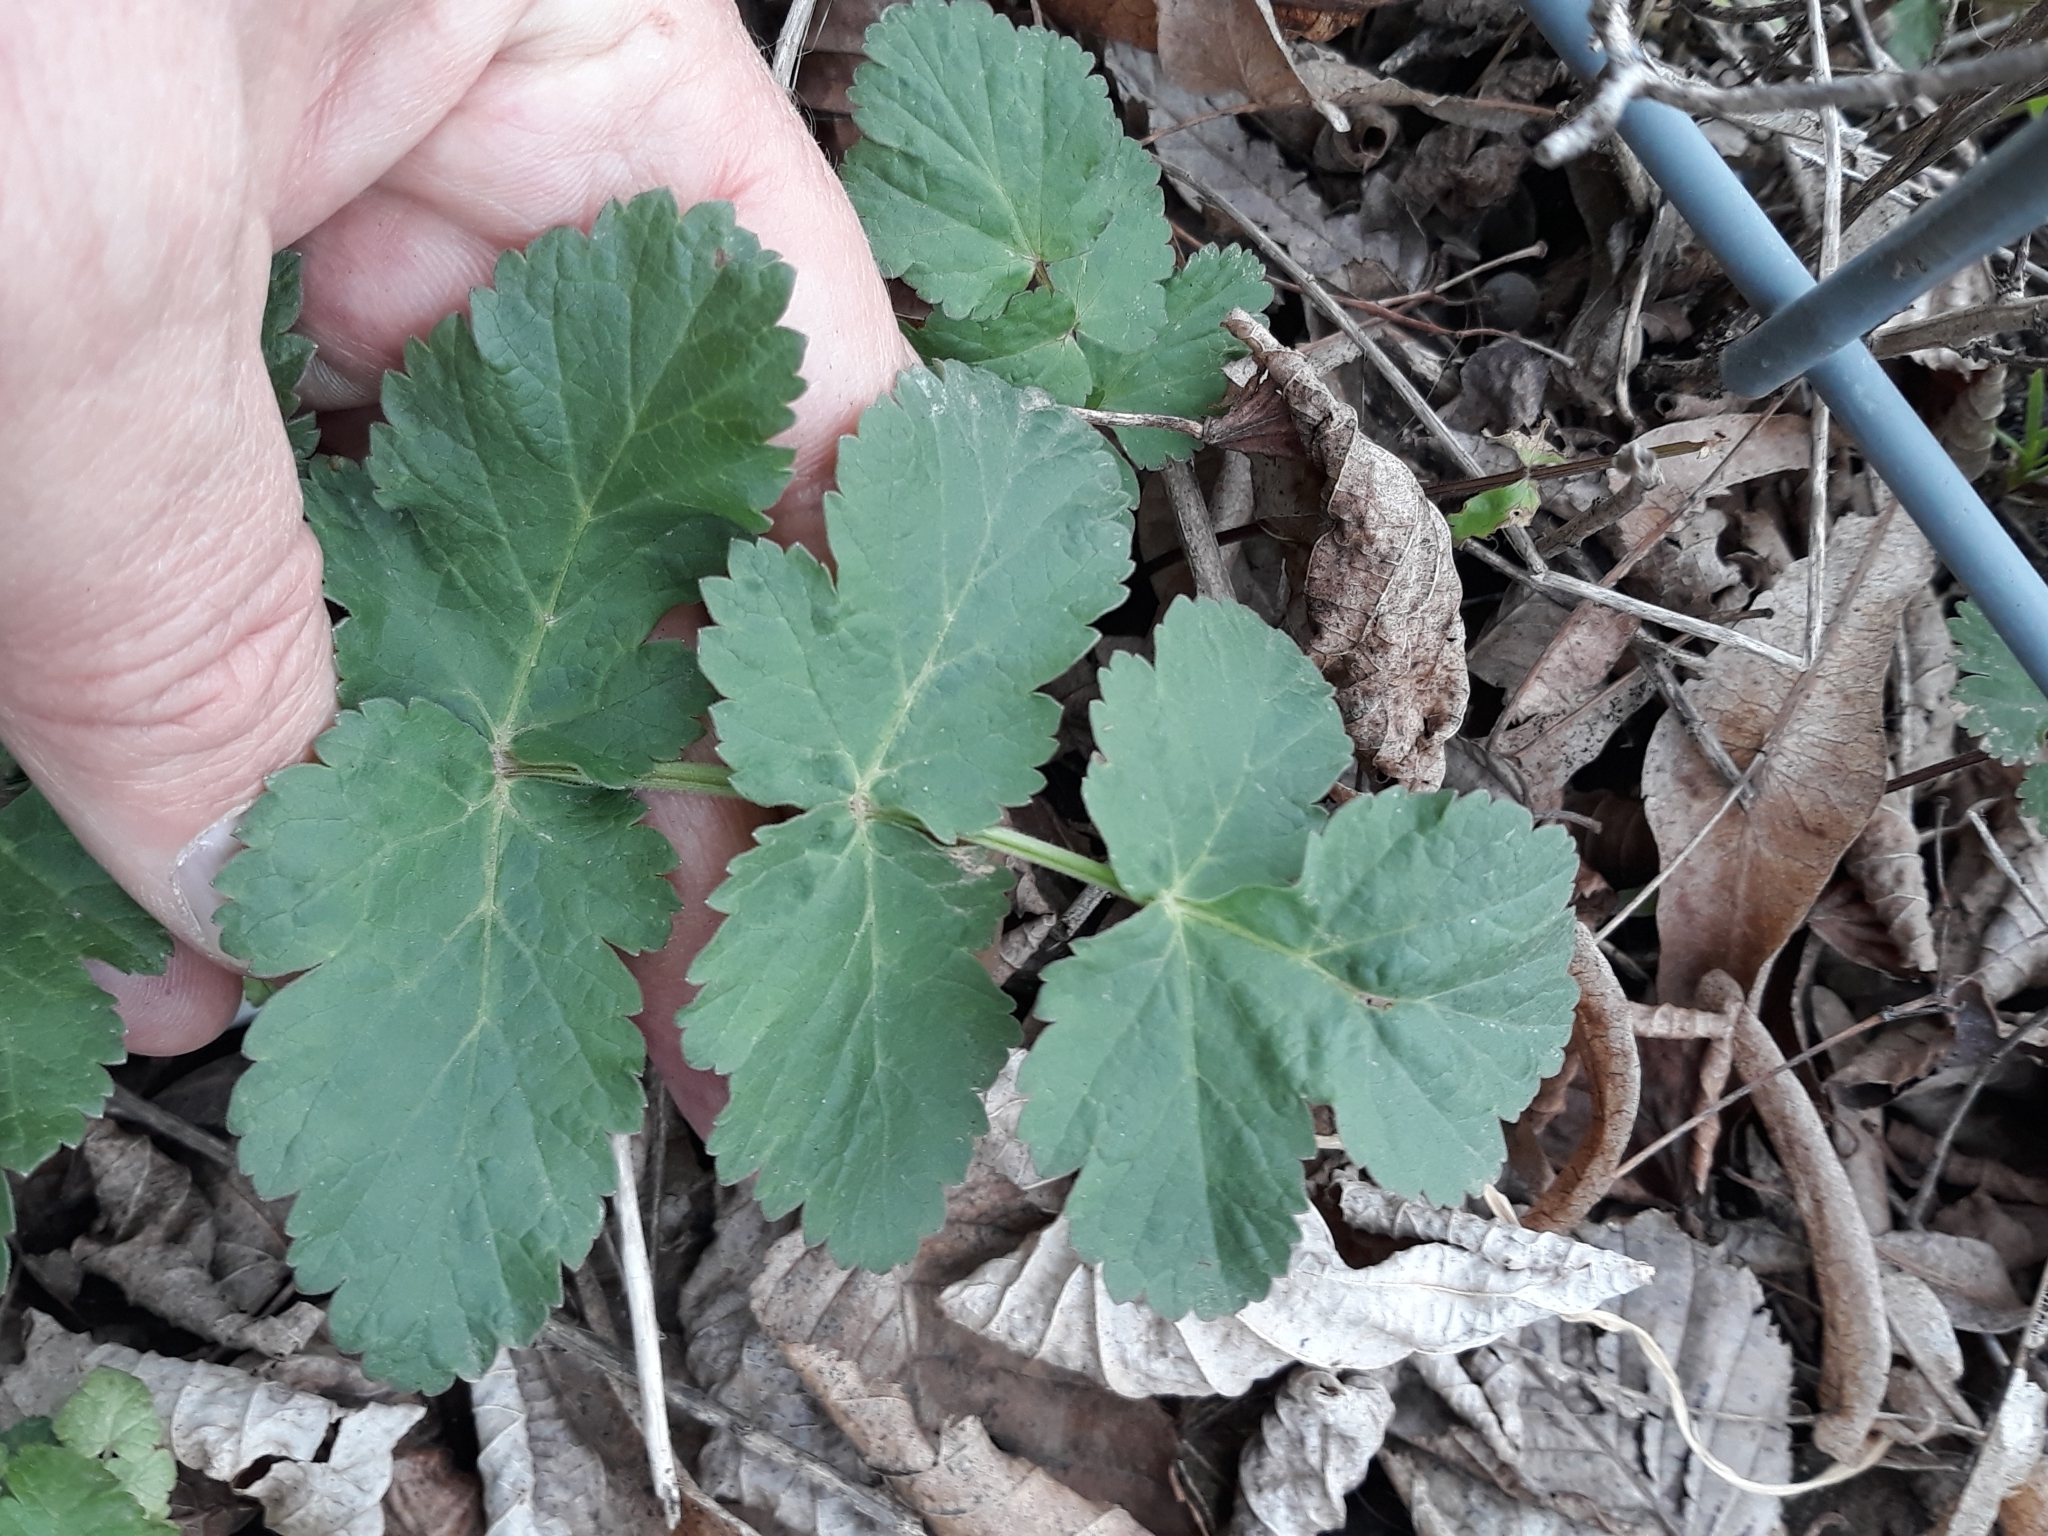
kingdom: Plantae
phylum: Tracheophyta
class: Magnoliopsida
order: Apiales
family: Apiaceae
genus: Pastinaca
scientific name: Pastinaca sativa
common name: Wild parsnip
